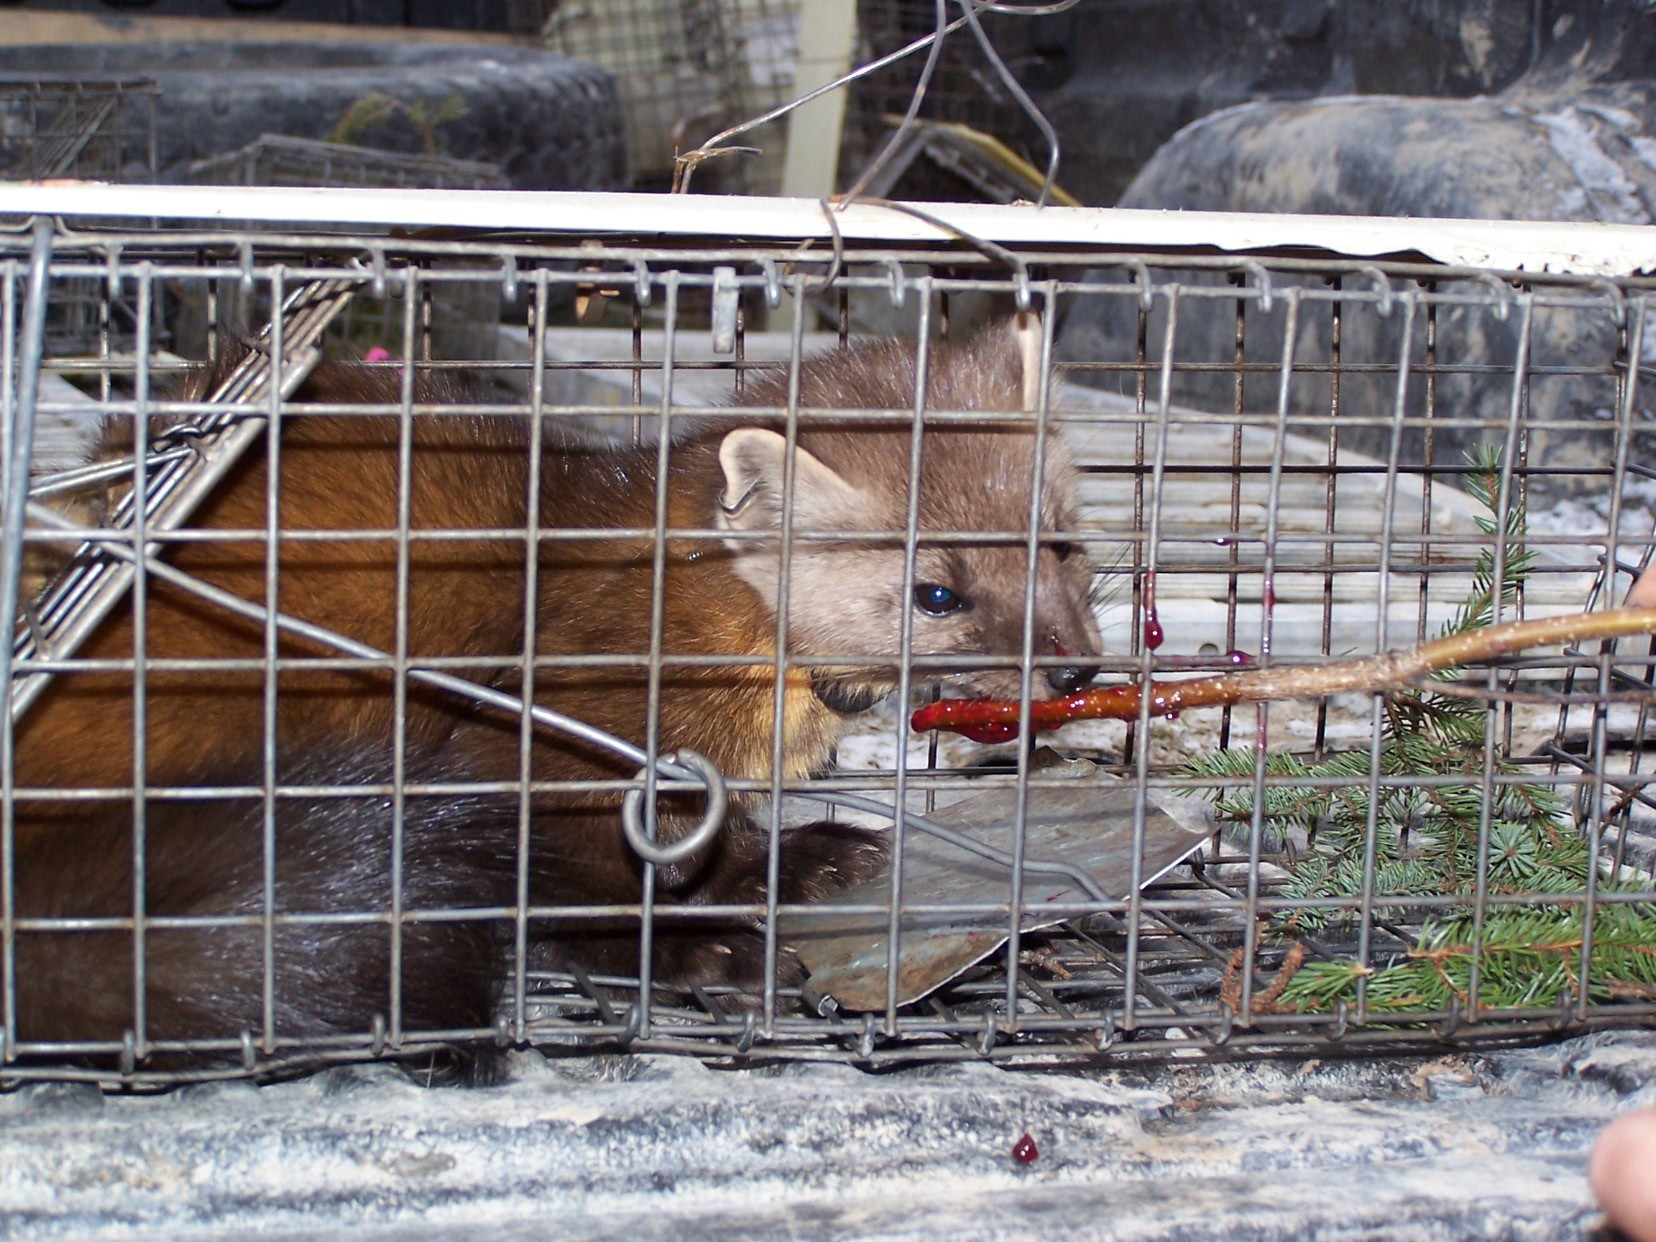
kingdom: Animalia
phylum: Chordata
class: Mammalia
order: Carnivora
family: Mustelidae
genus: Martes
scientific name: Martes americana
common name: American marten
